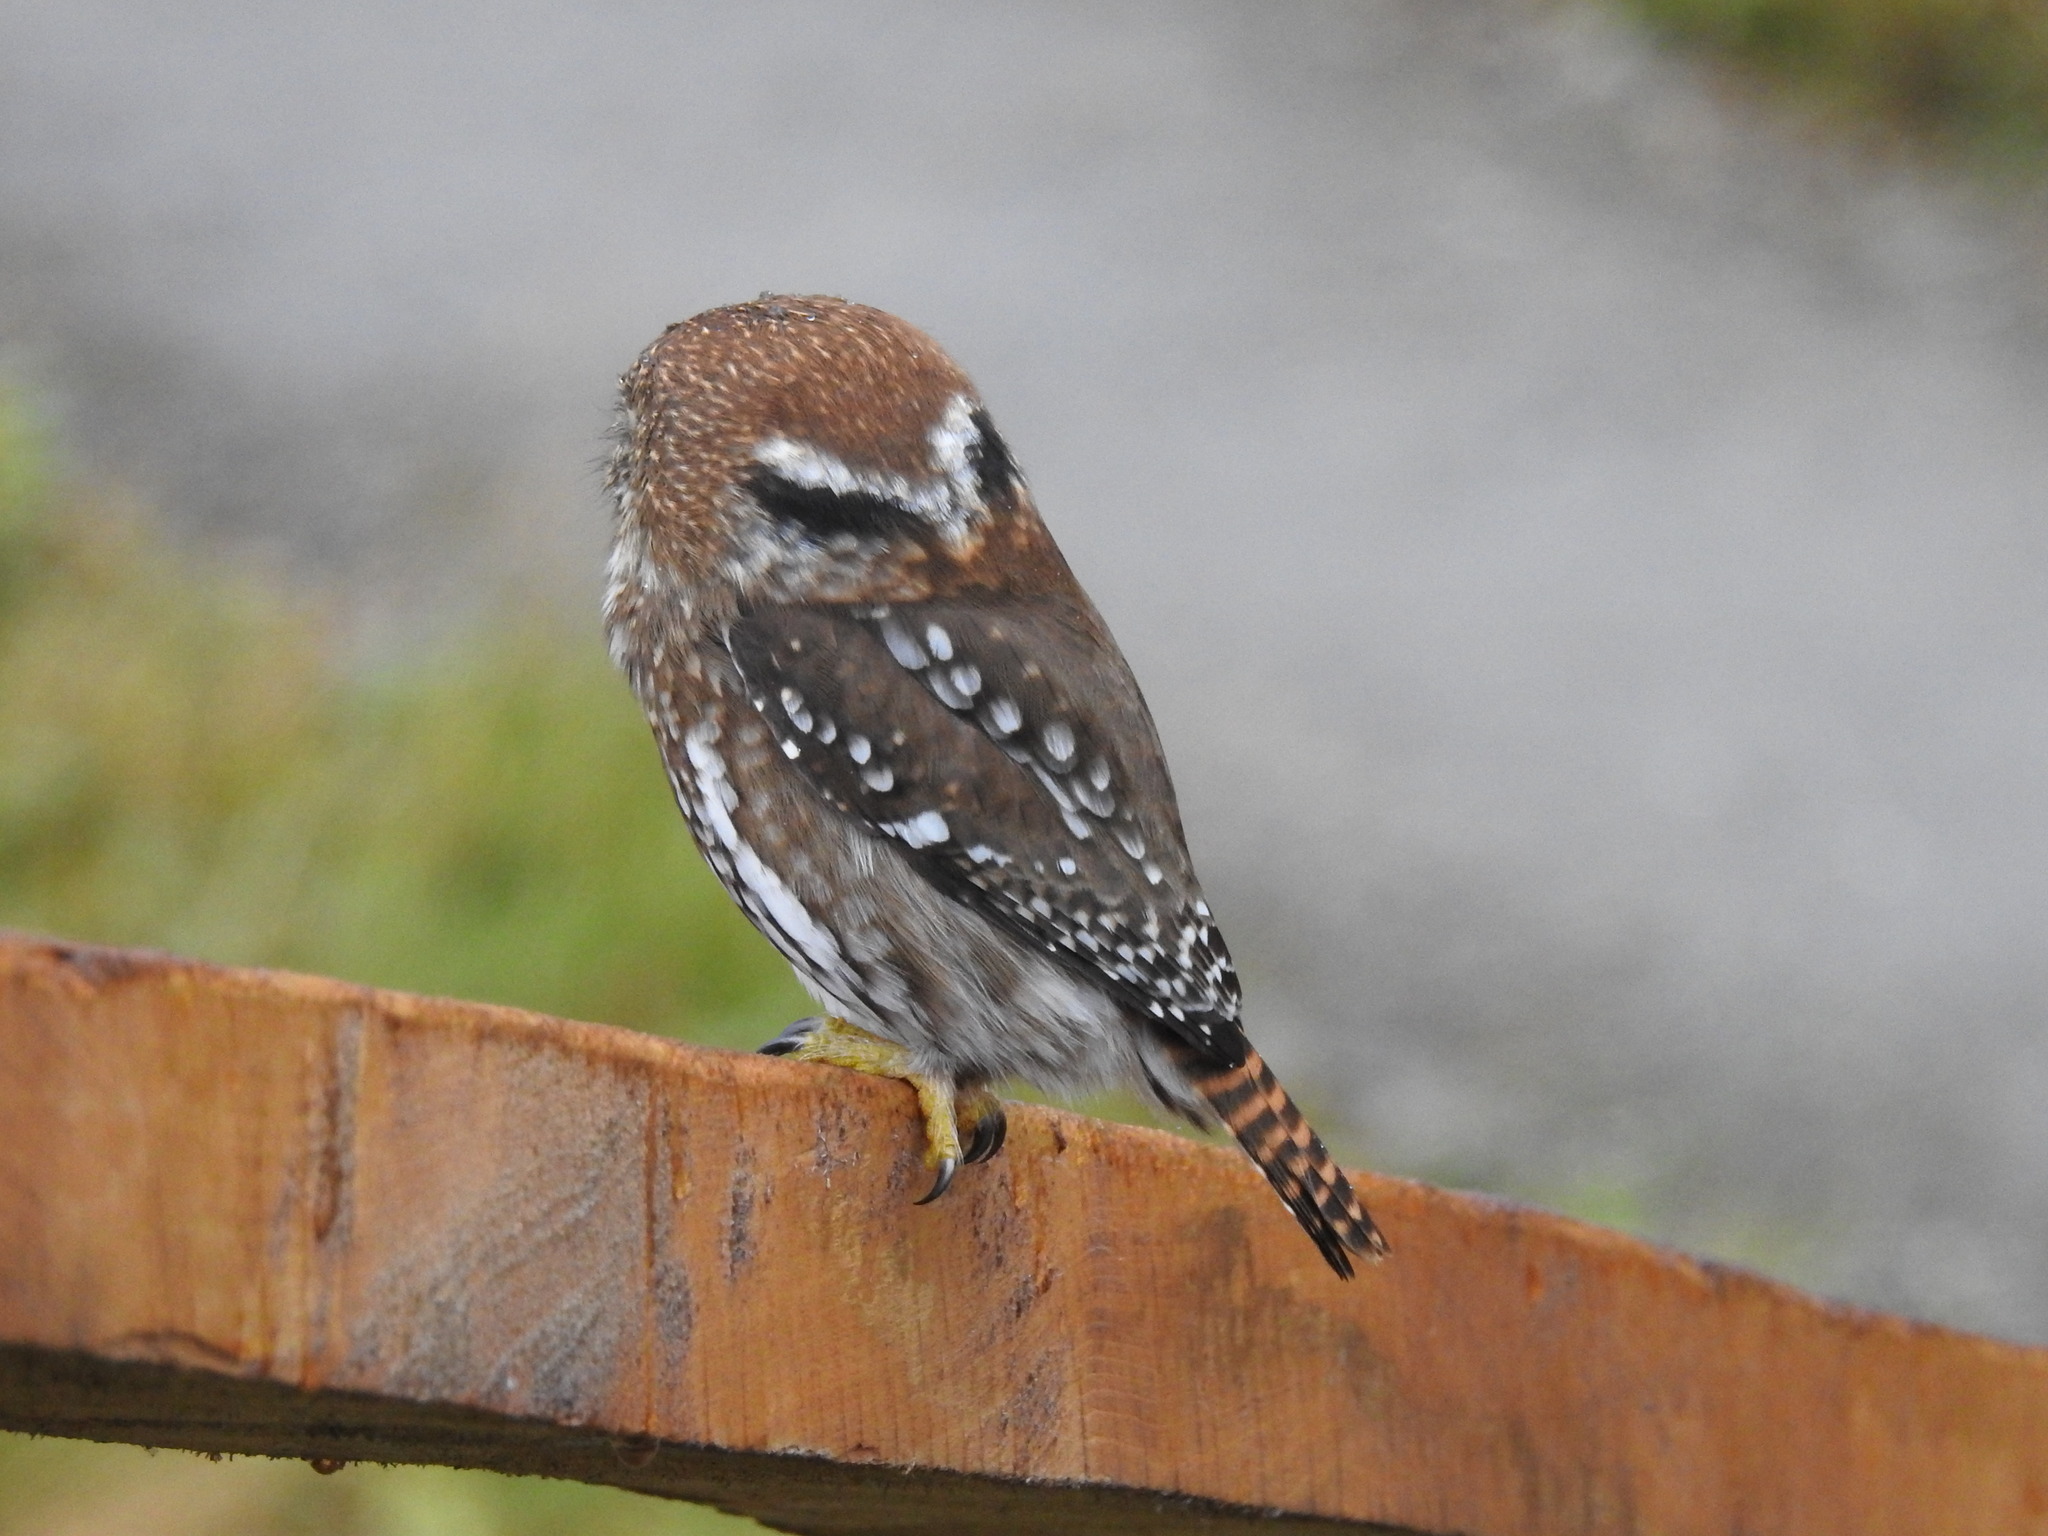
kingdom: Animalia
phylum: Chordata
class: Aves
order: Strigiformes
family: Strigidae
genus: Glaucidium
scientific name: Glaucidium nana
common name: Austral pygmy-owl
